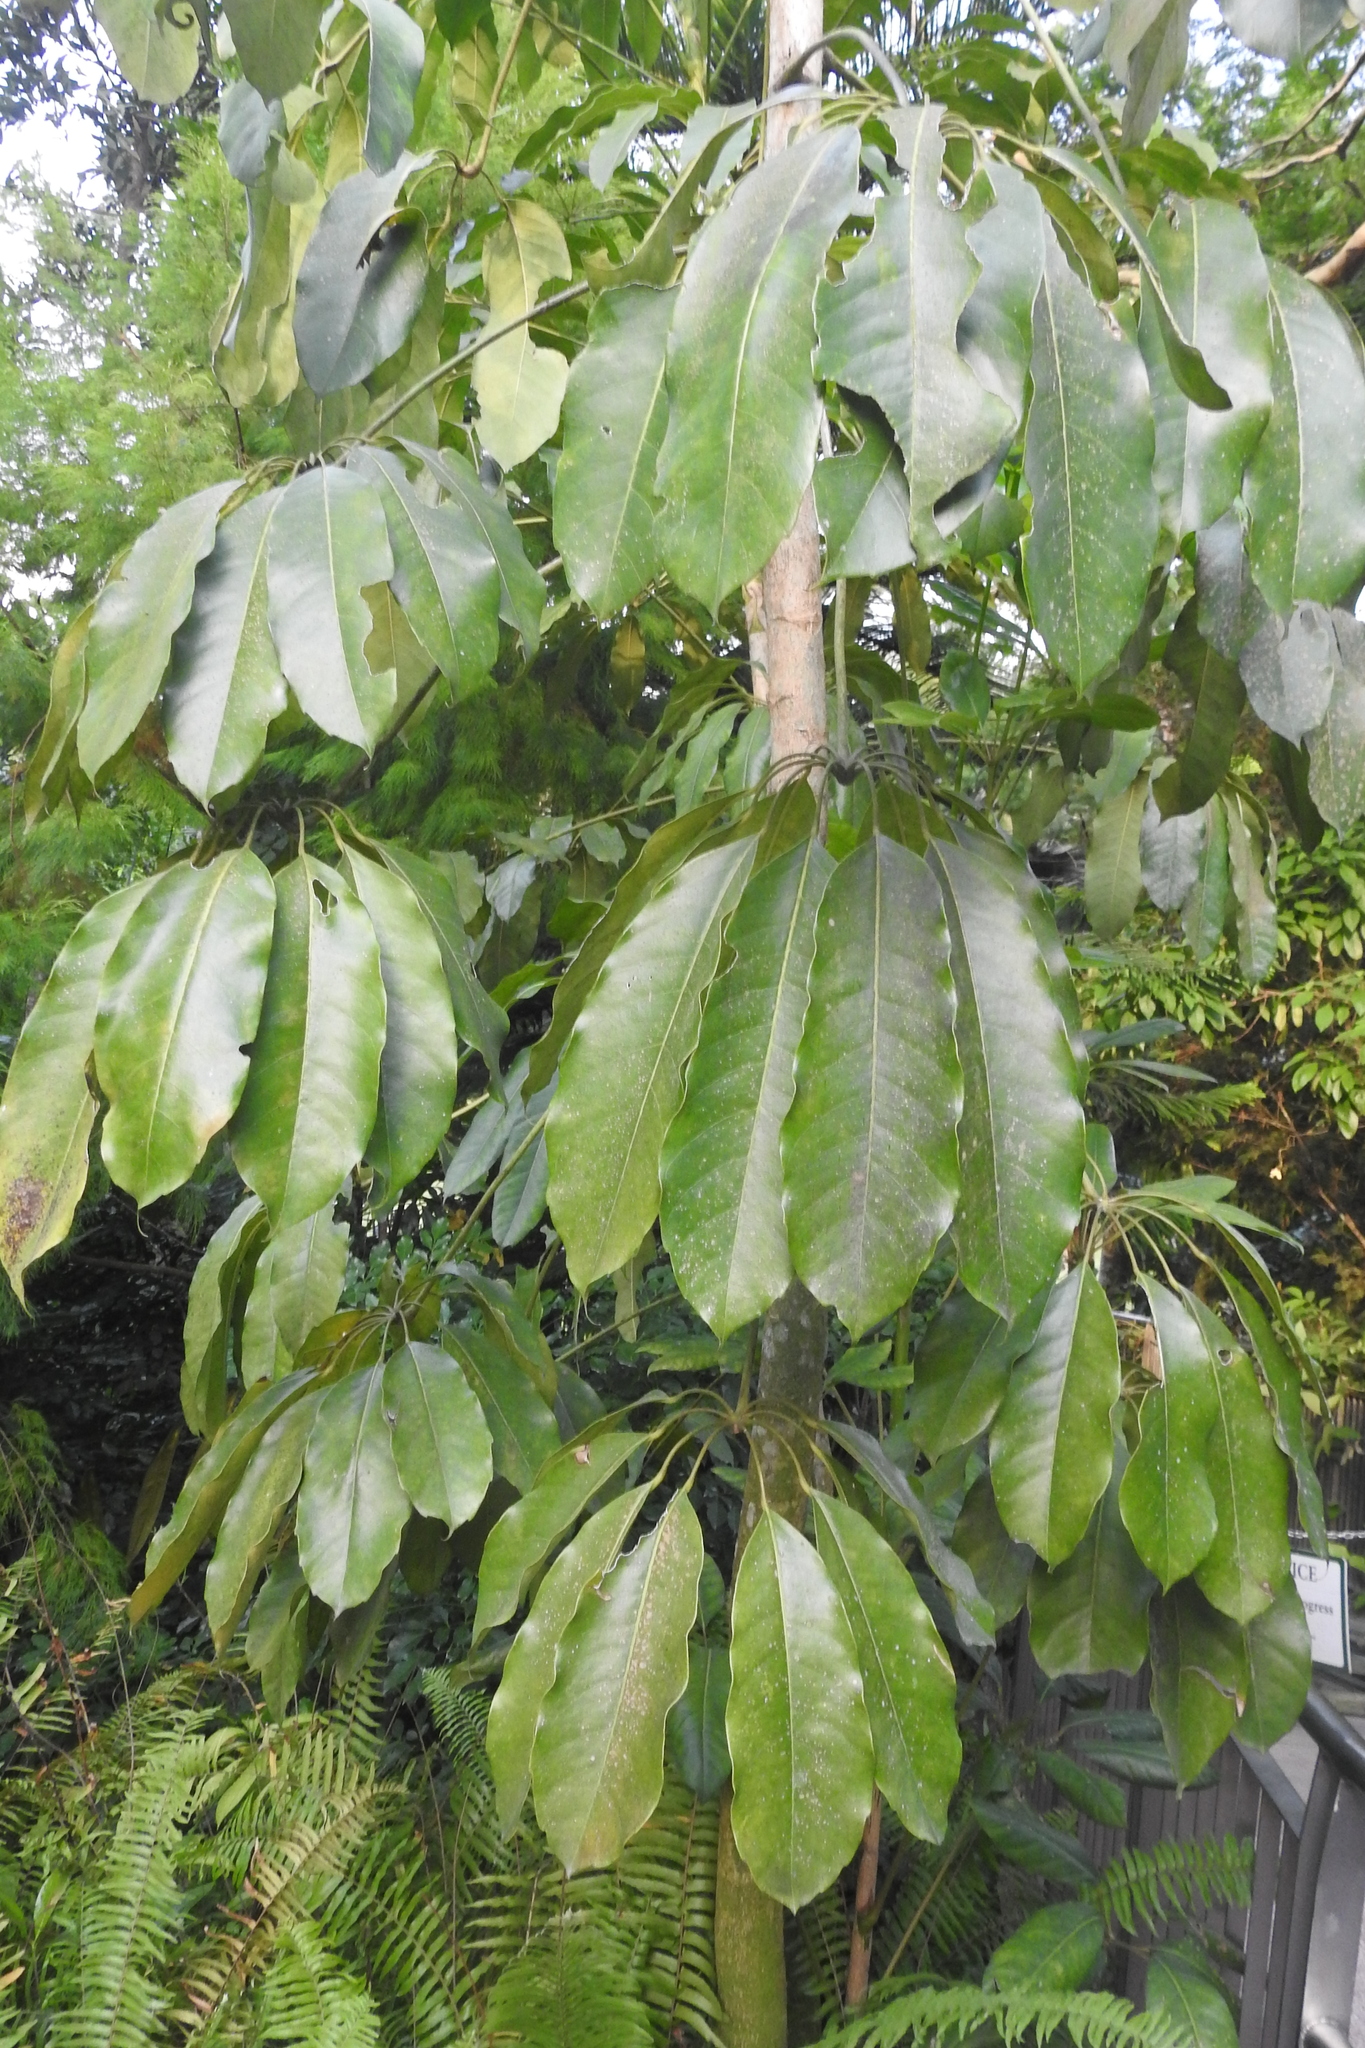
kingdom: Plantae
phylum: Tracheophyta
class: Magnoliopsida
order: Apiales
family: Araliaceae
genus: Heptapleurum
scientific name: Heptapleurum actinophyllum
